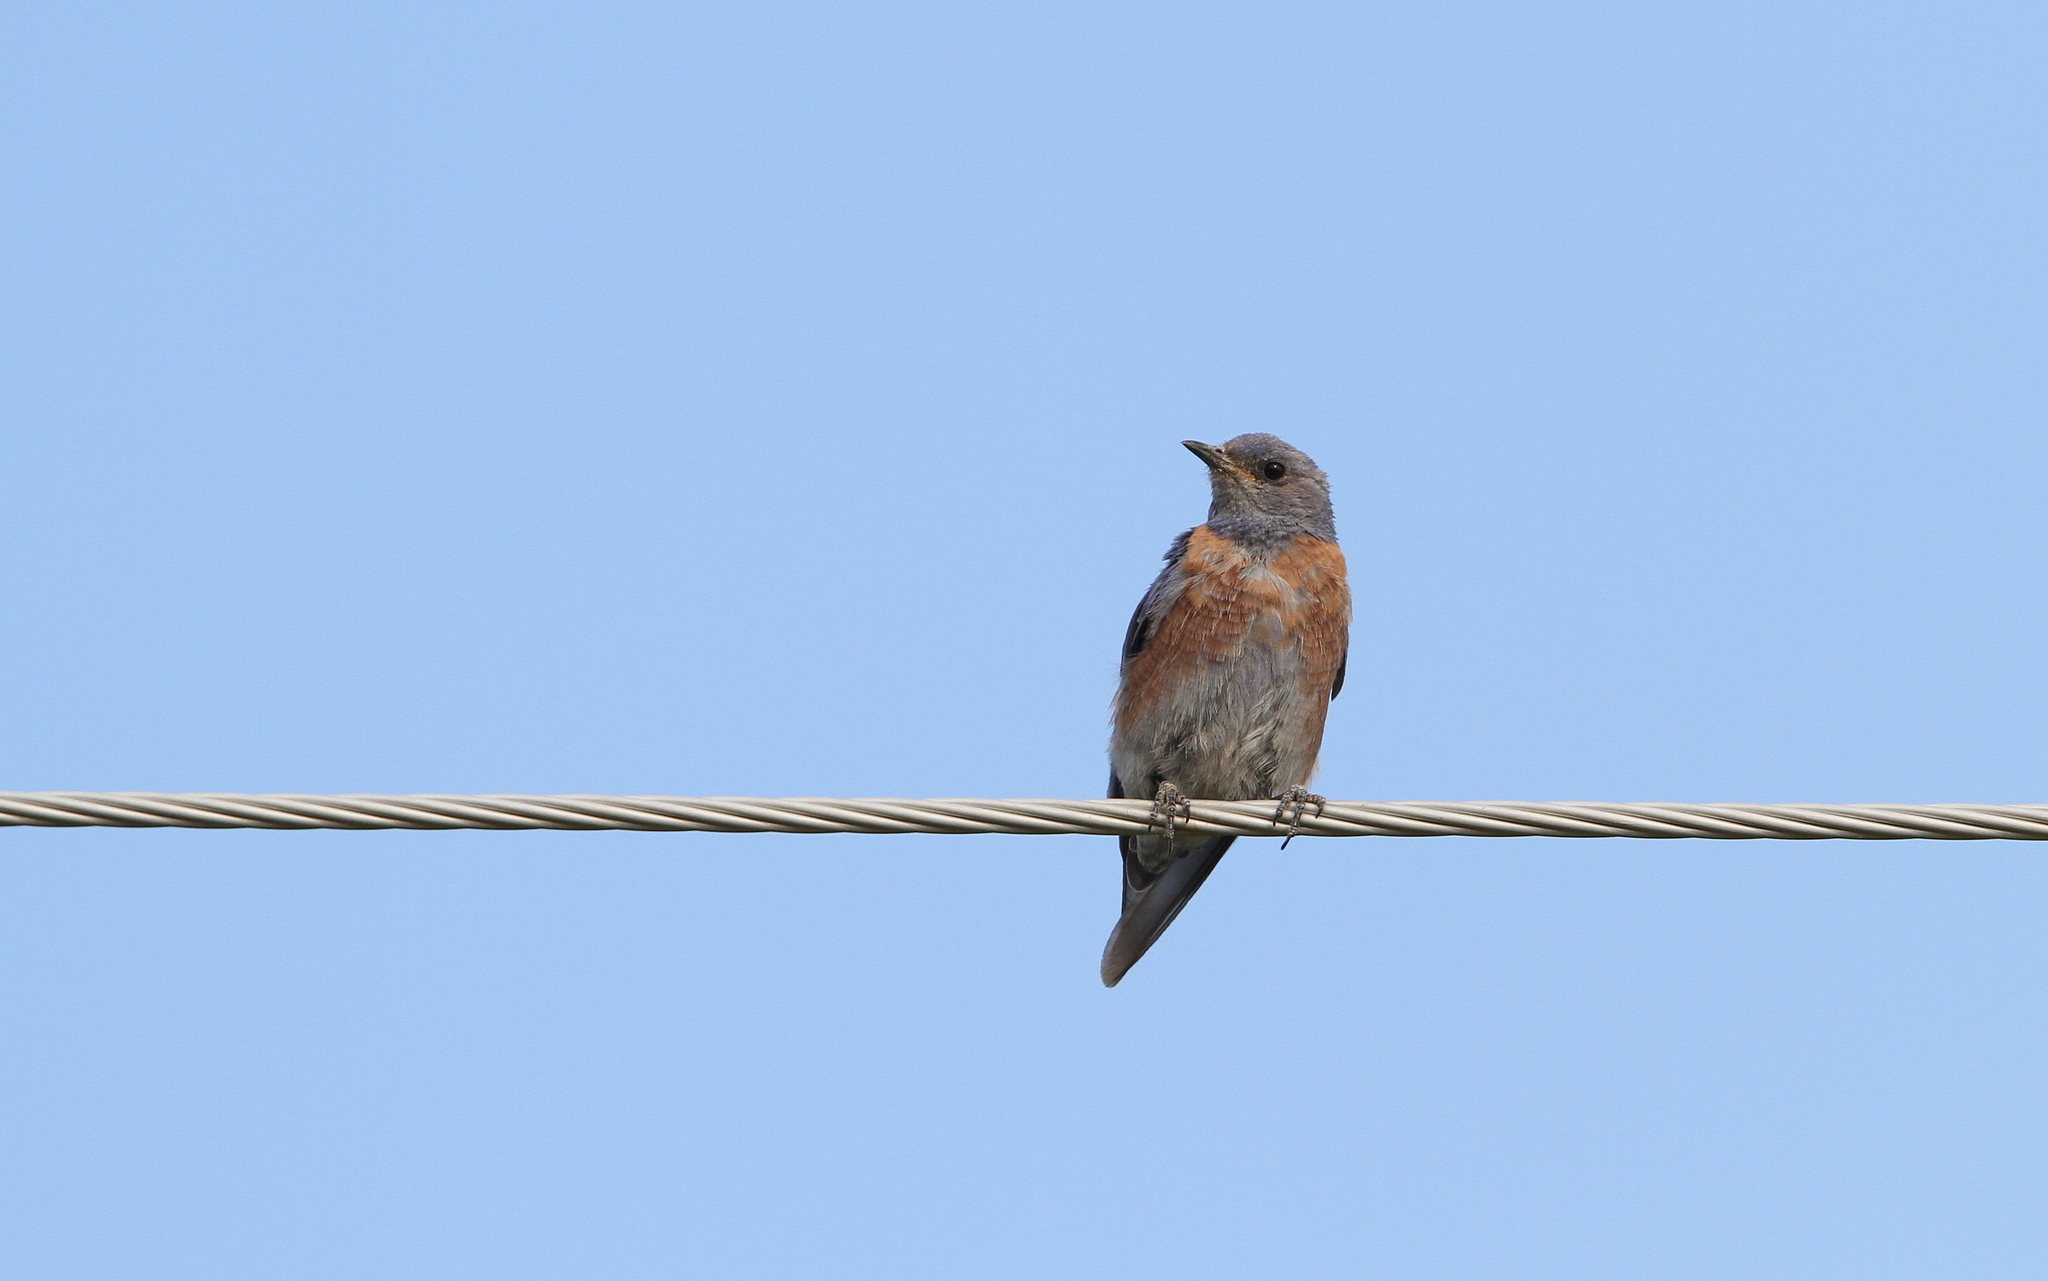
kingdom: Animalia
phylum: Chordata
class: Aves
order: Passeriformes
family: Turdidae
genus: Sialia
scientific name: Sialia mexicana
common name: Western bluebird
